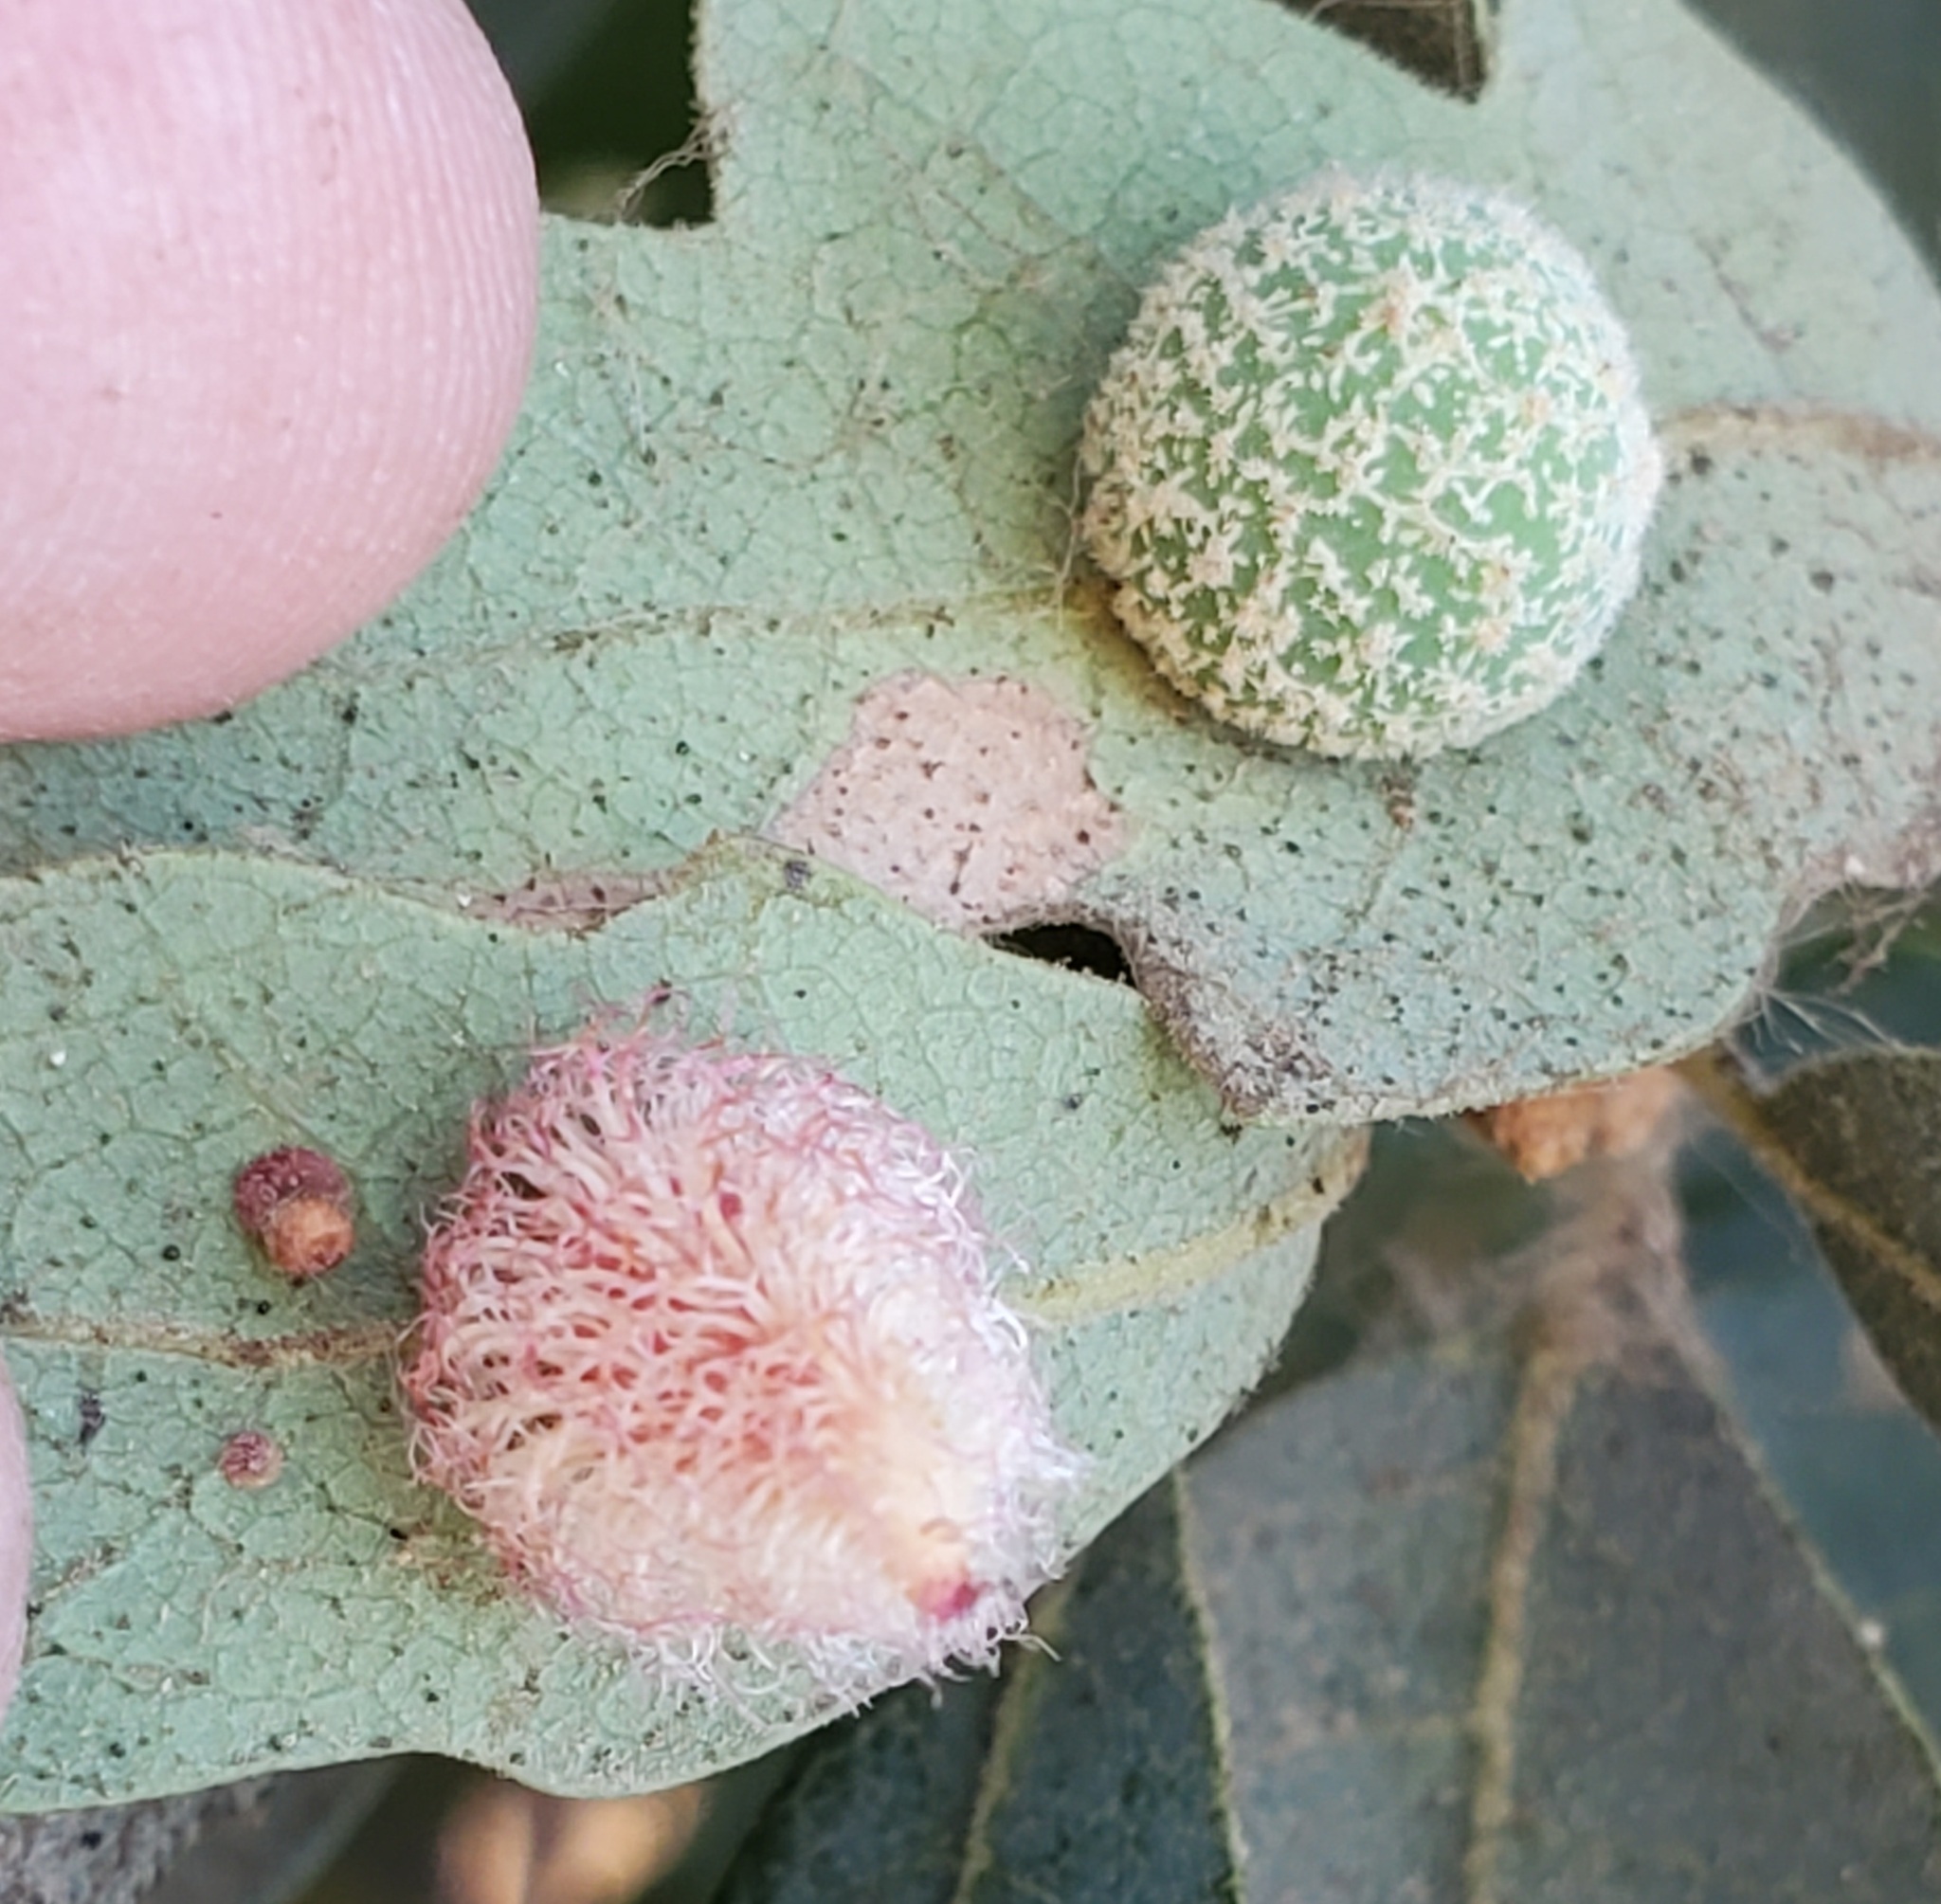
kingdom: Animalia
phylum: Arthropoda
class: Insecta
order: Hymenoptera
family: Cynipidae
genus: Cynips
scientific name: Cynips
